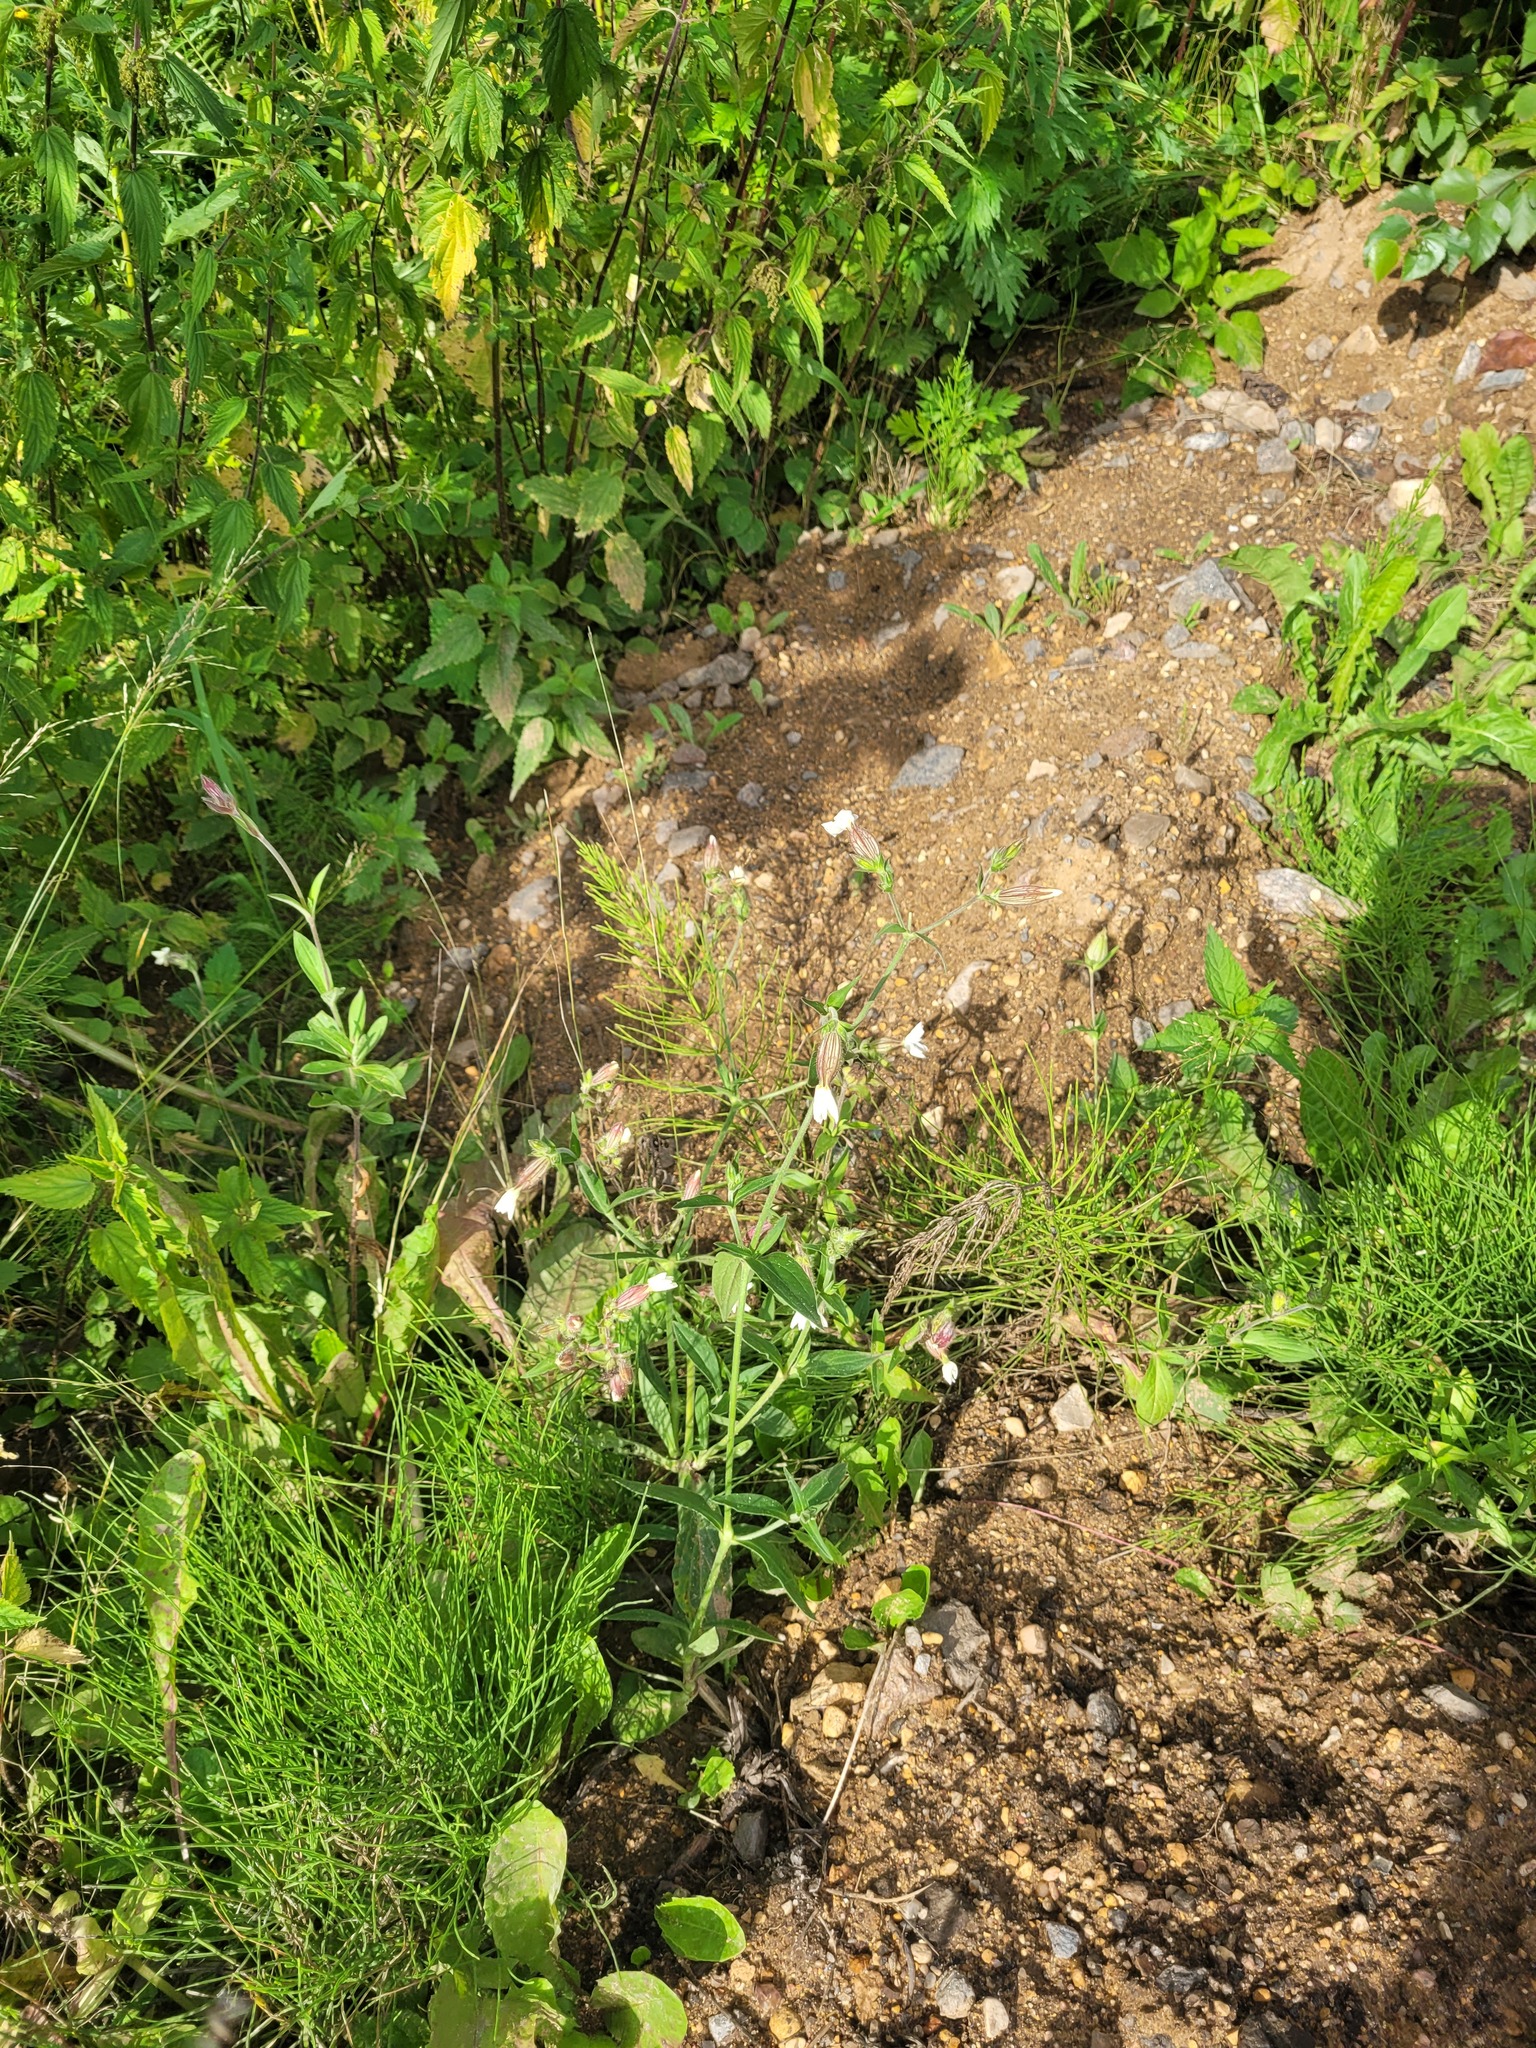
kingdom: Plantae
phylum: Tracheophyta
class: Magnoliopsida
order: Caryophyllales
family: Caryophyllaceae
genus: Silene
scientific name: Silene latifolia
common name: White campion
